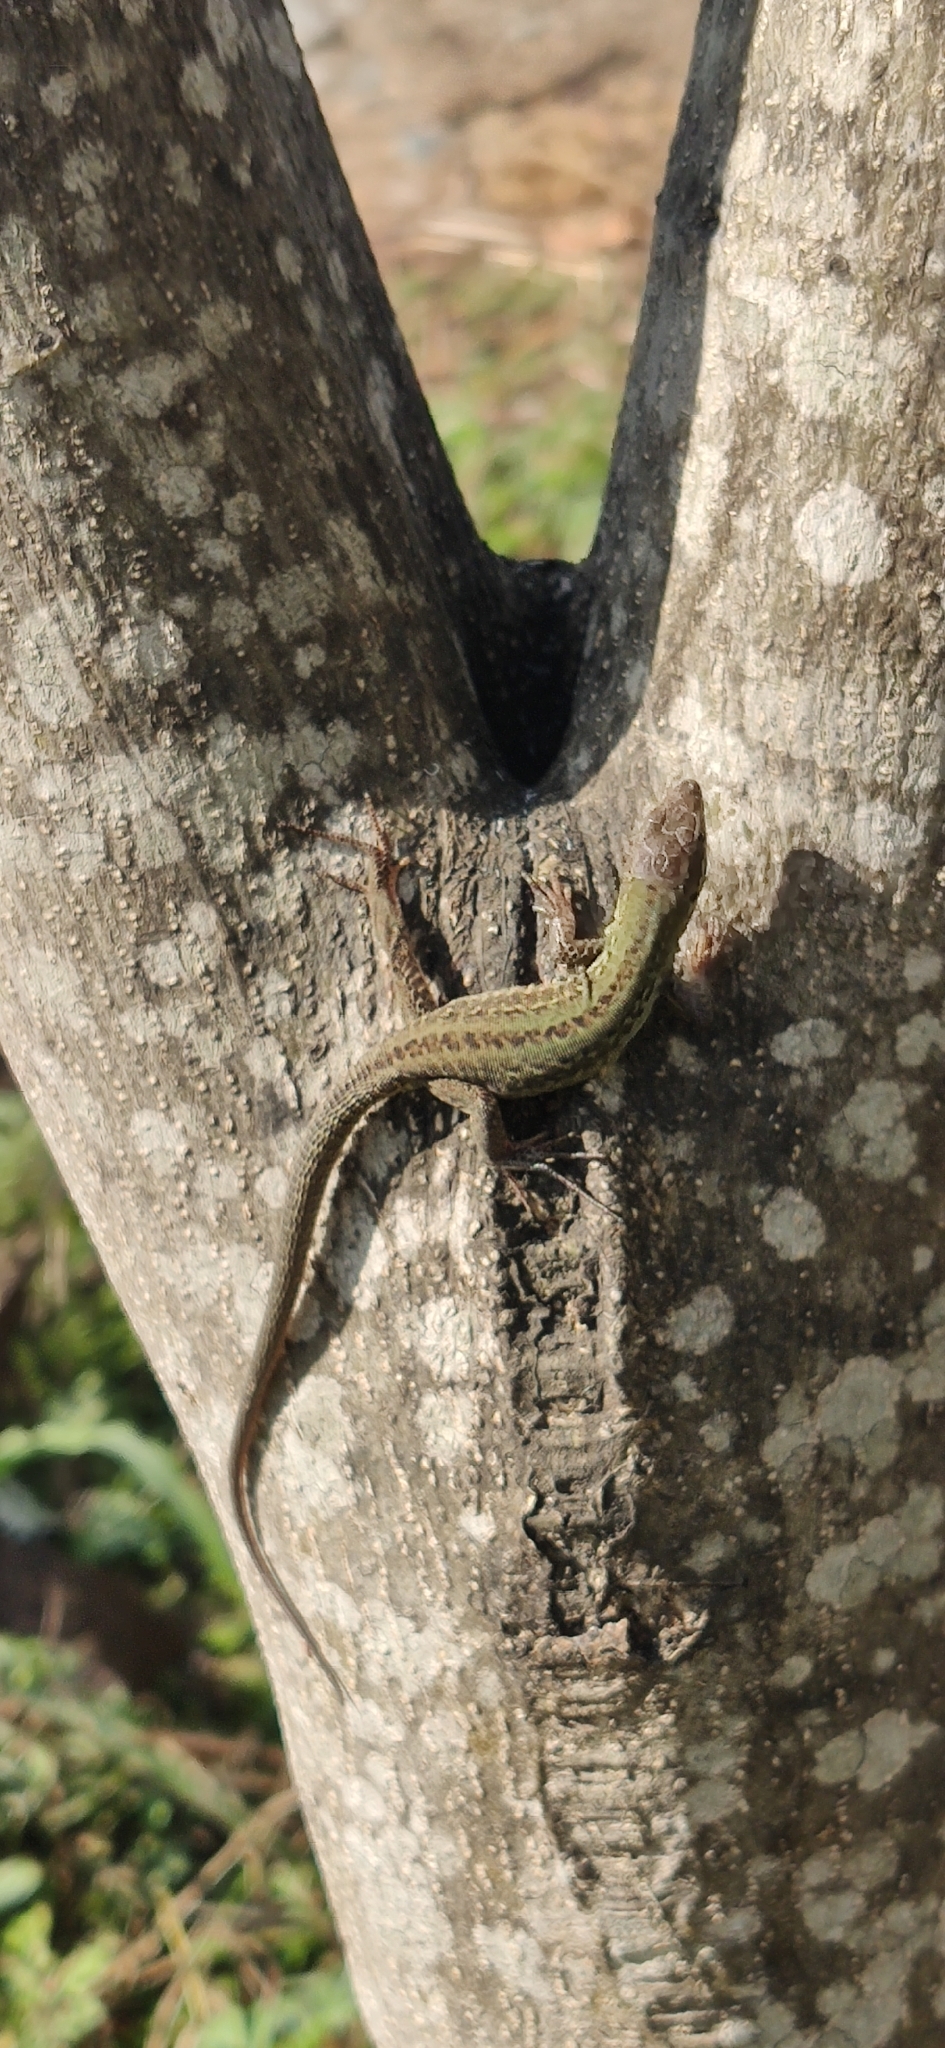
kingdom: Animalia
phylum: Chordata
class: Squamata
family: Lacertidae
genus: Podarcis
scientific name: Podarcis siculus
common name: Italian wall lizard
